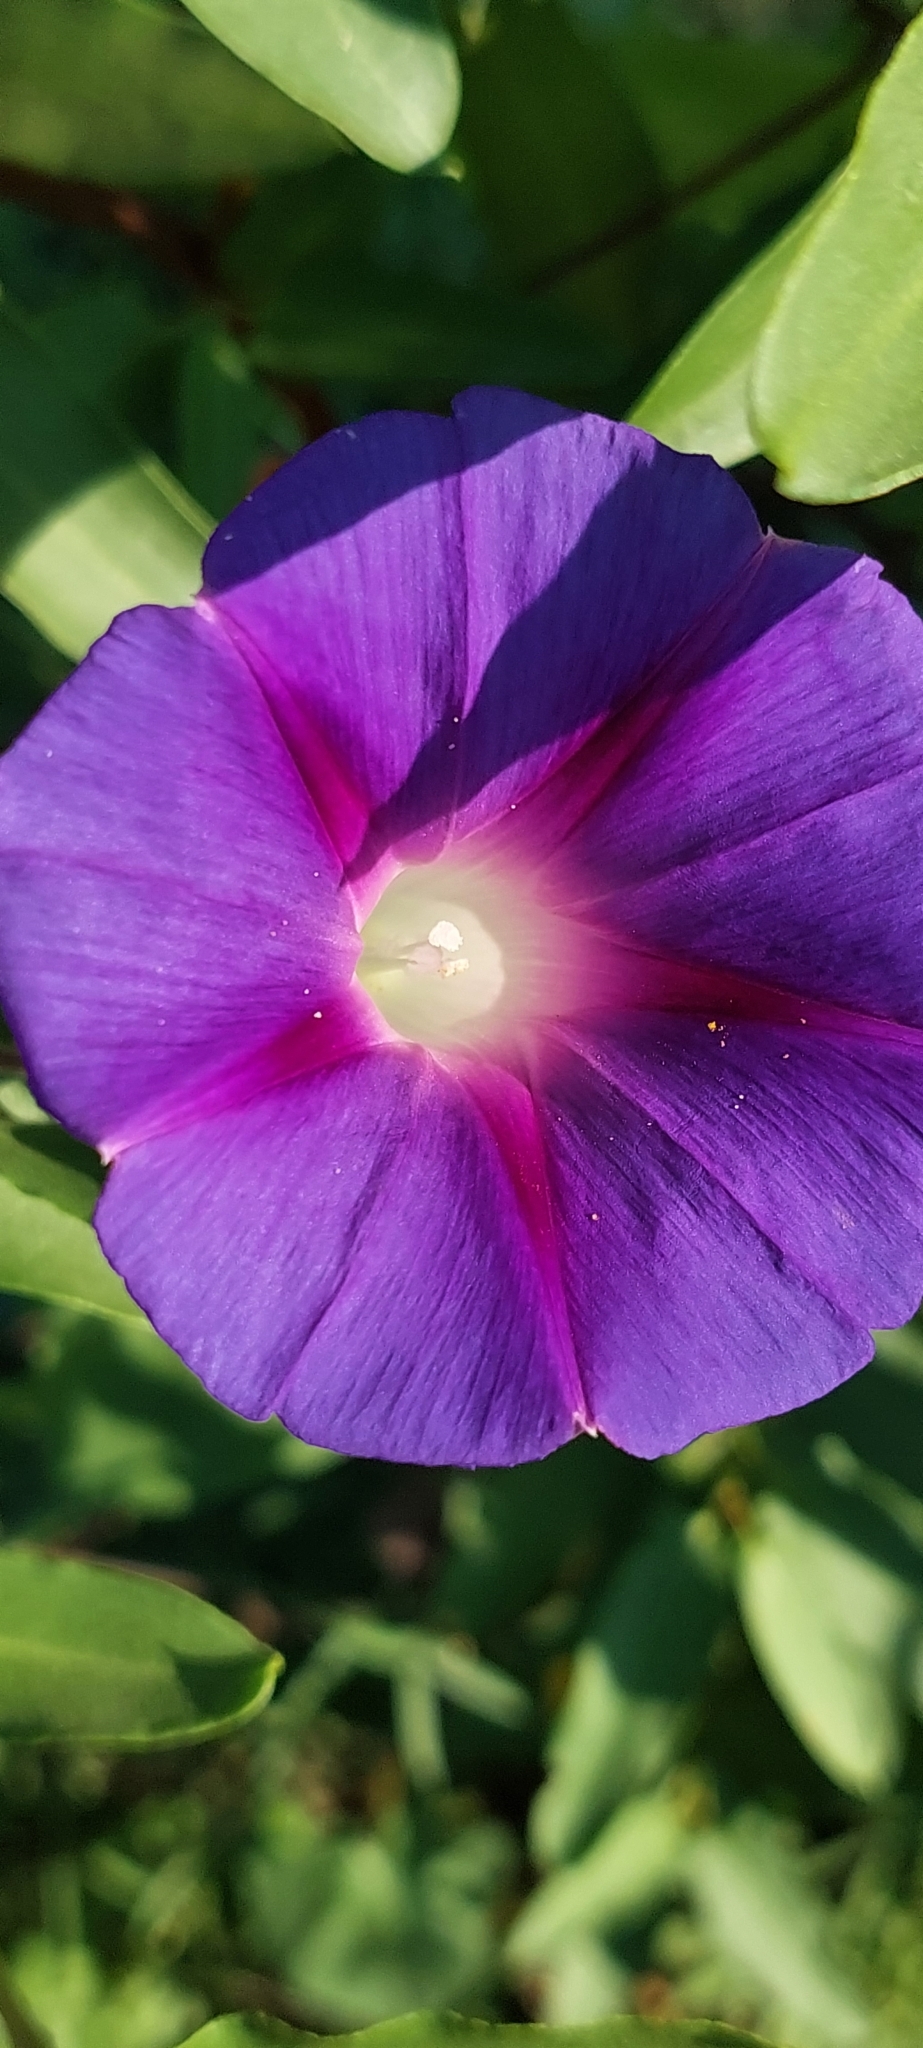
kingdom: Plantae
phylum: Tracheophyta
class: Magnoliopsida
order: Solanales
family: Convolvulaceae
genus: Ipomoea
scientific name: Ipomoea purpurea
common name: Common morning-glory
